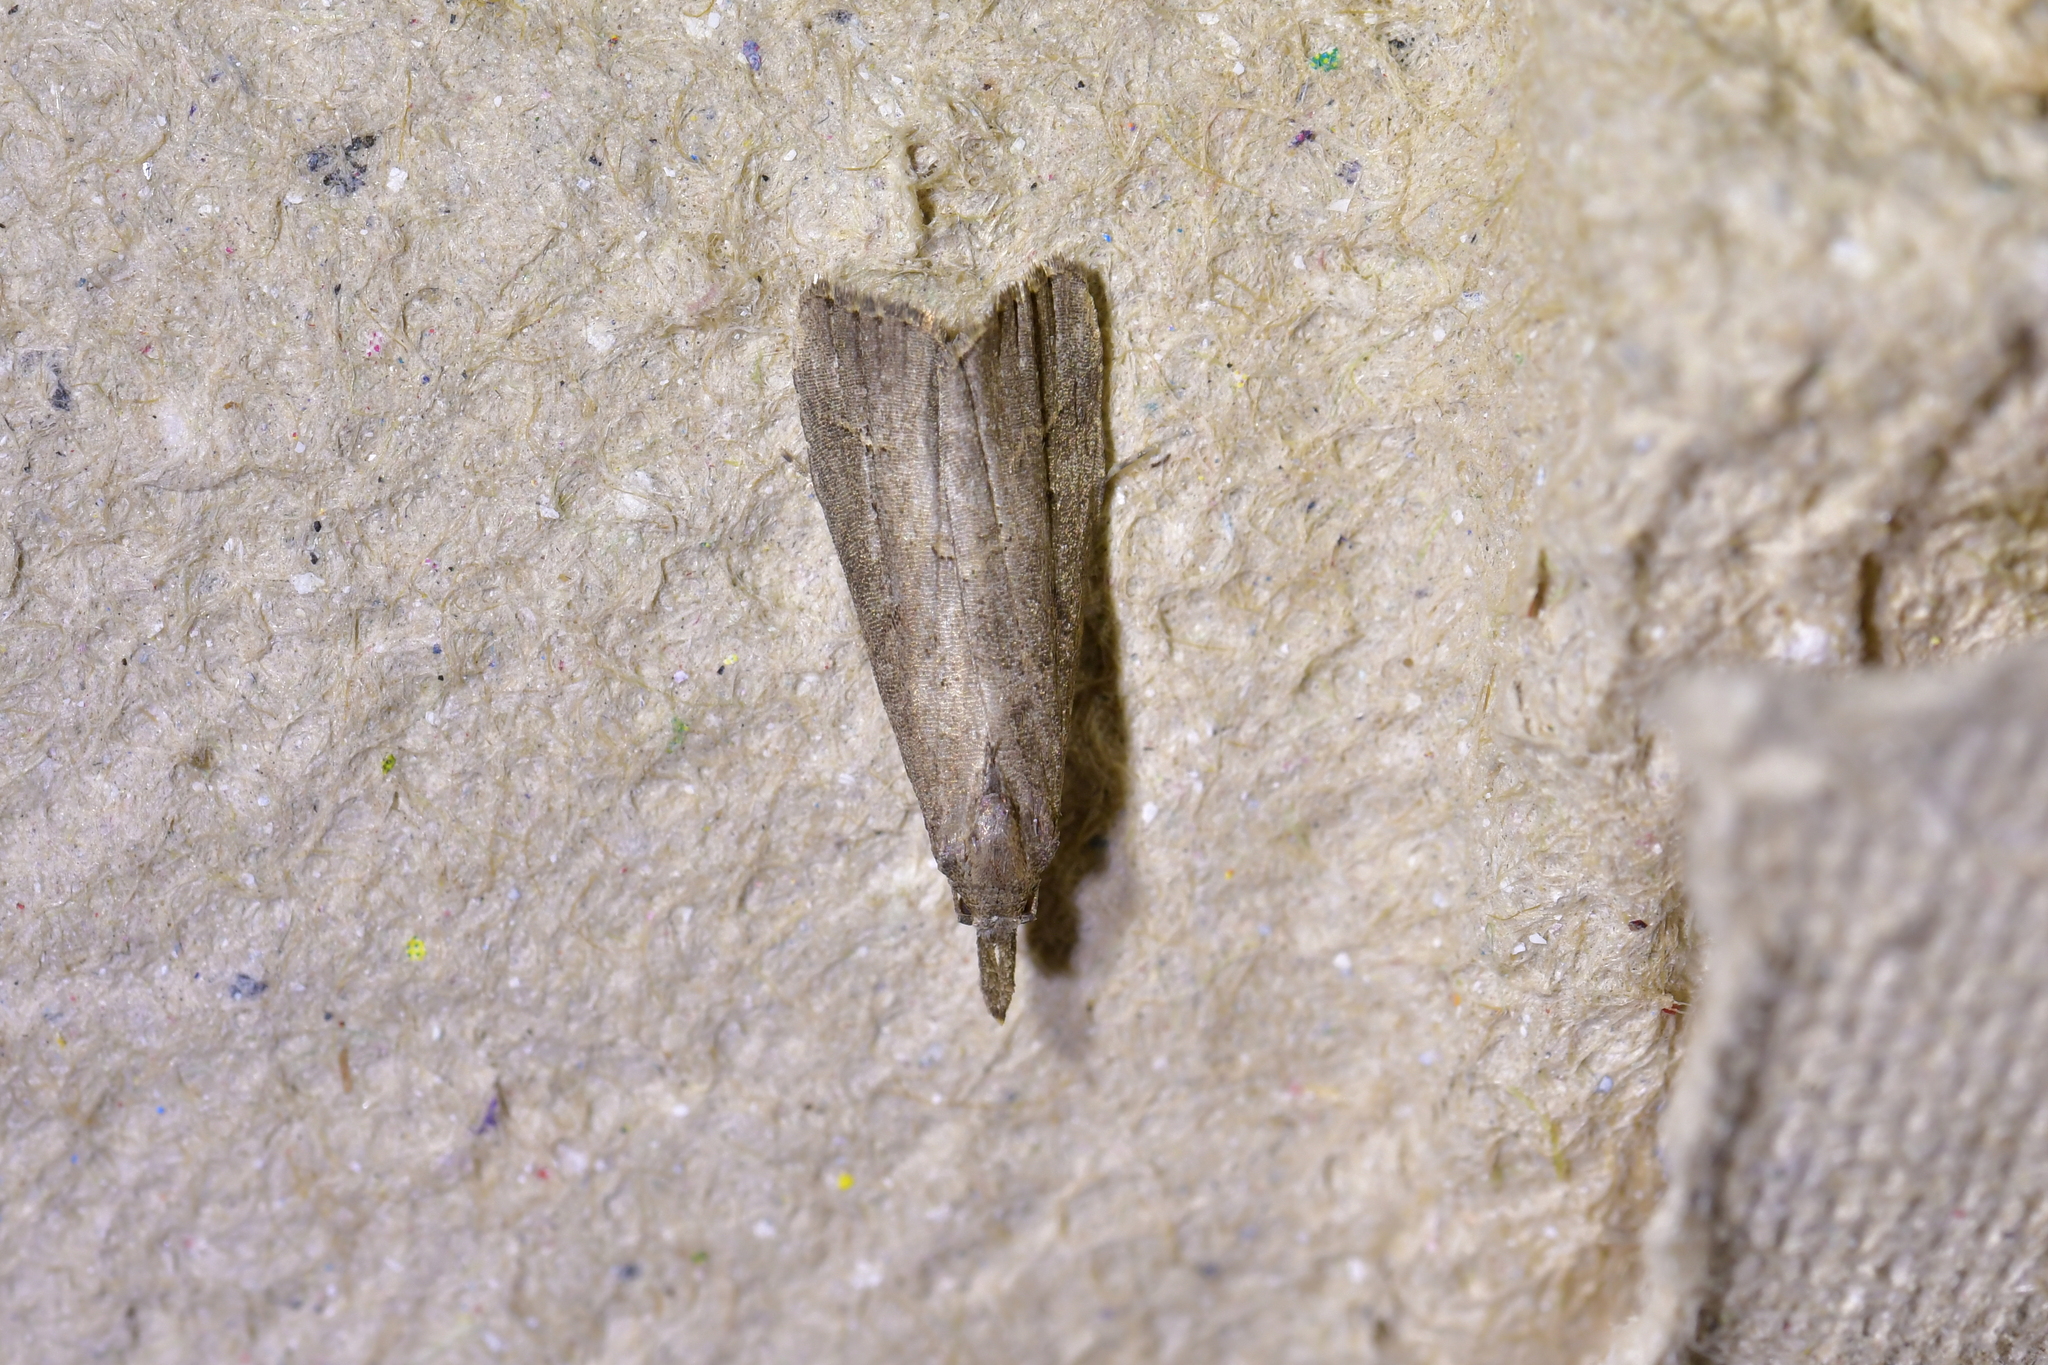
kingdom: Animalia
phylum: Arthropoda
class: Insecta
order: Lepidoptera
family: Erebidae
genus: Schrankia
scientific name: Schrankia costaestrigalis
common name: Pinion-streaked snout
